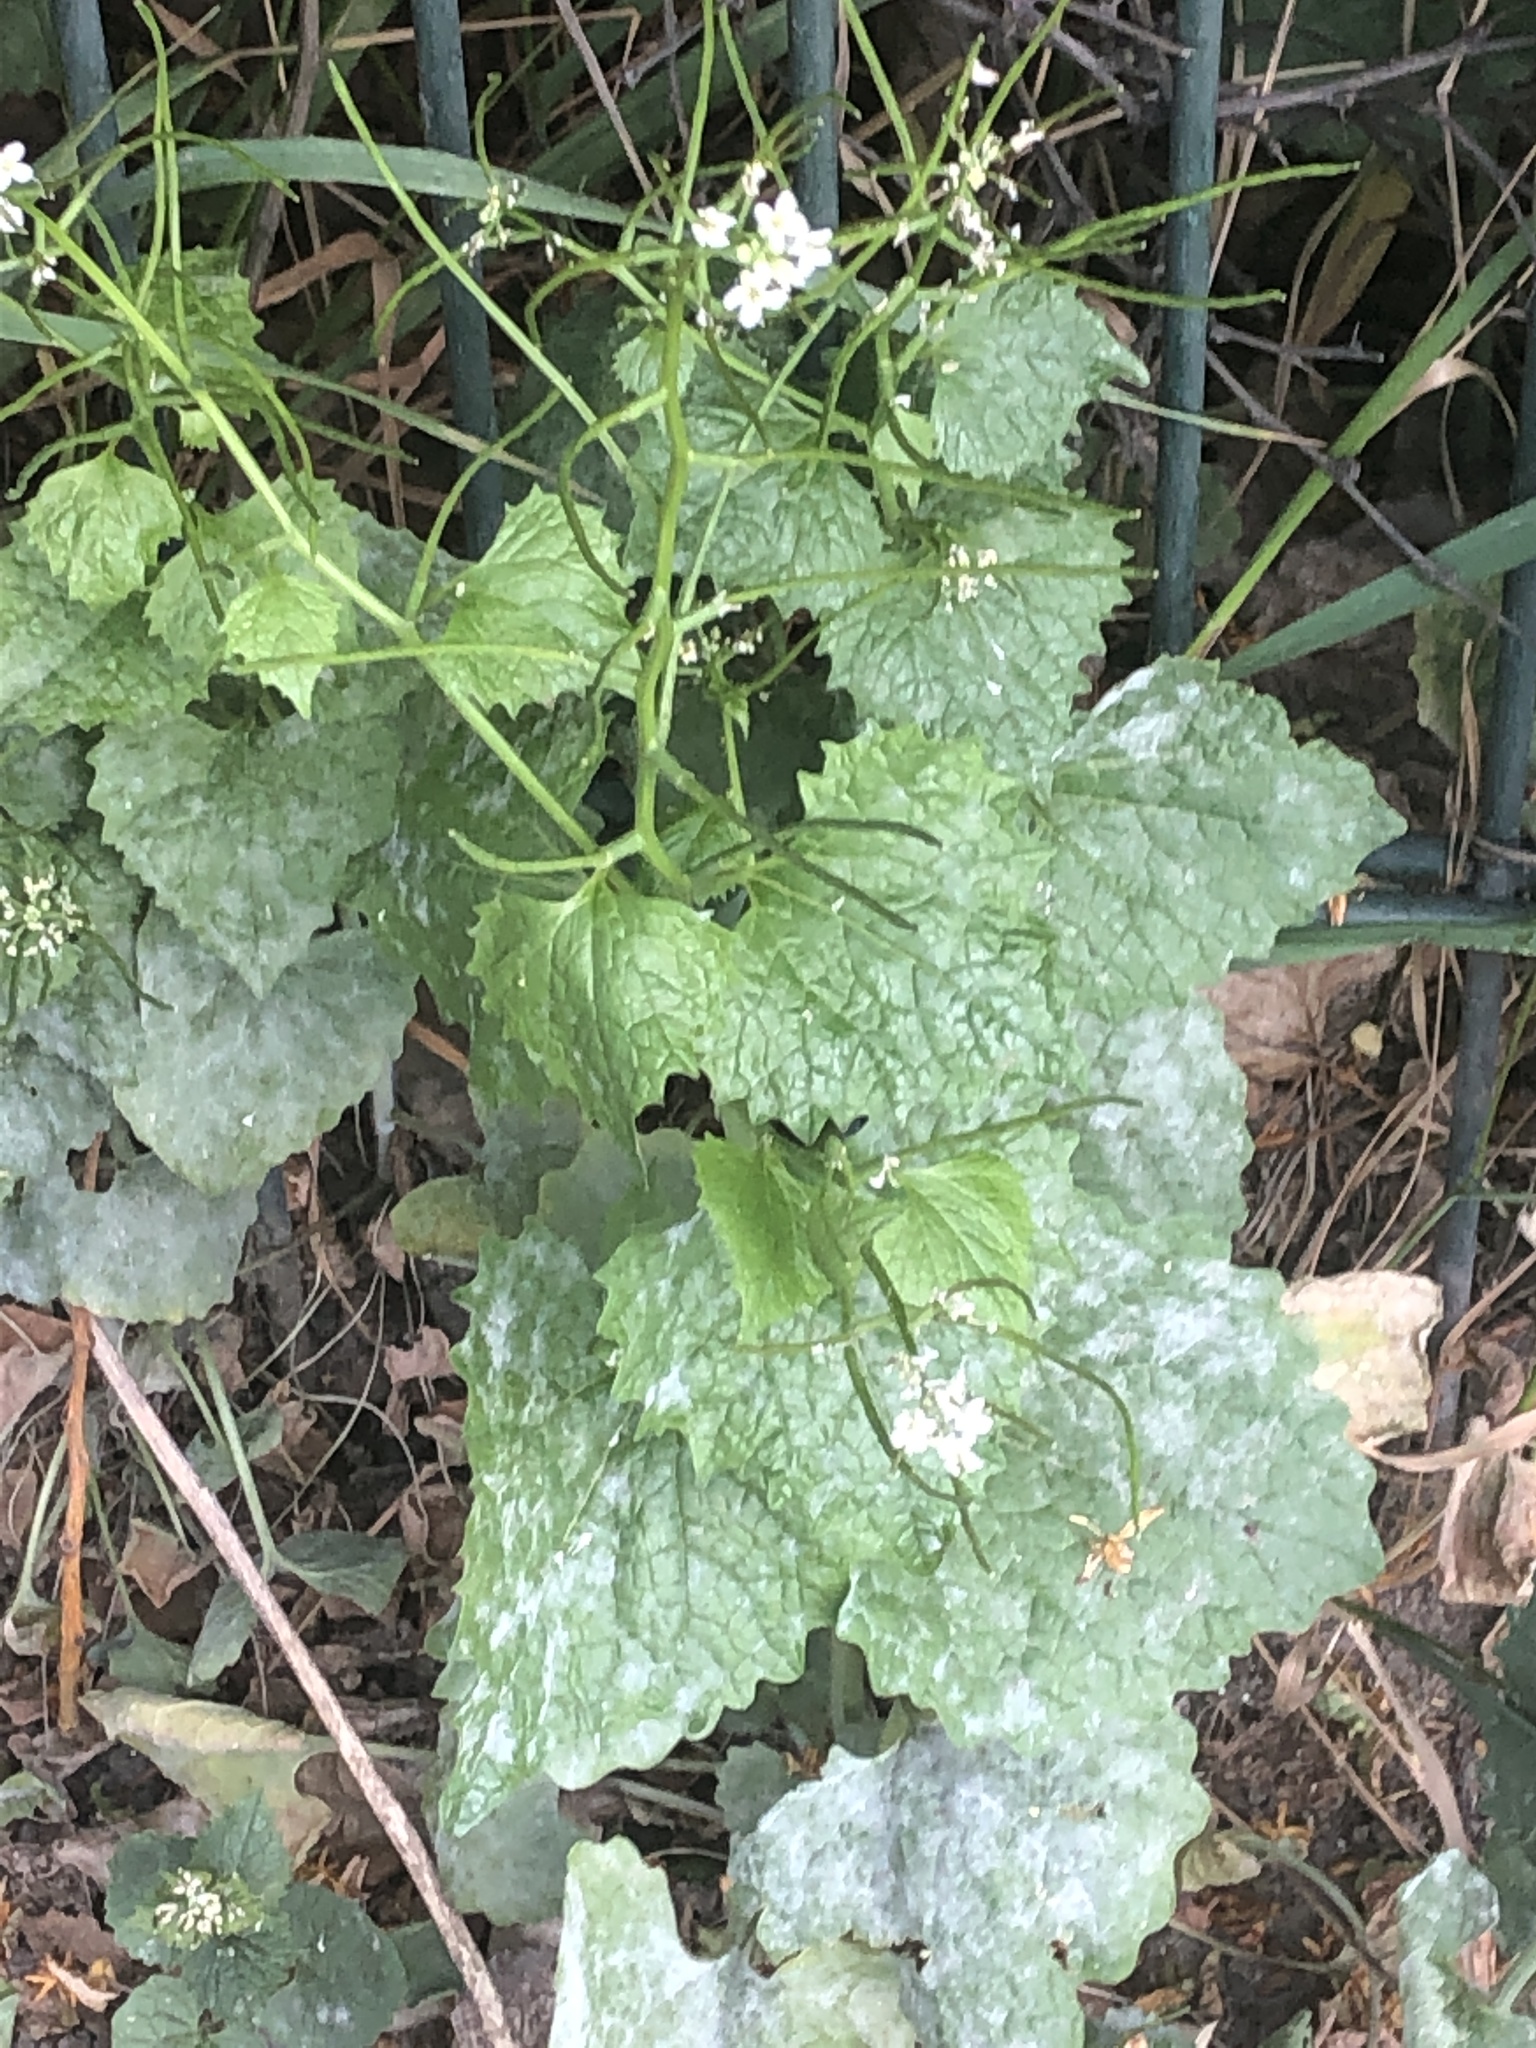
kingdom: Plantae
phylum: Tracheophyta
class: Magnoliopsida
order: Brassicales
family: Brassicaceae
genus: Alliaria
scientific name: Alliaria petiolata
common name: Garlic mustard
